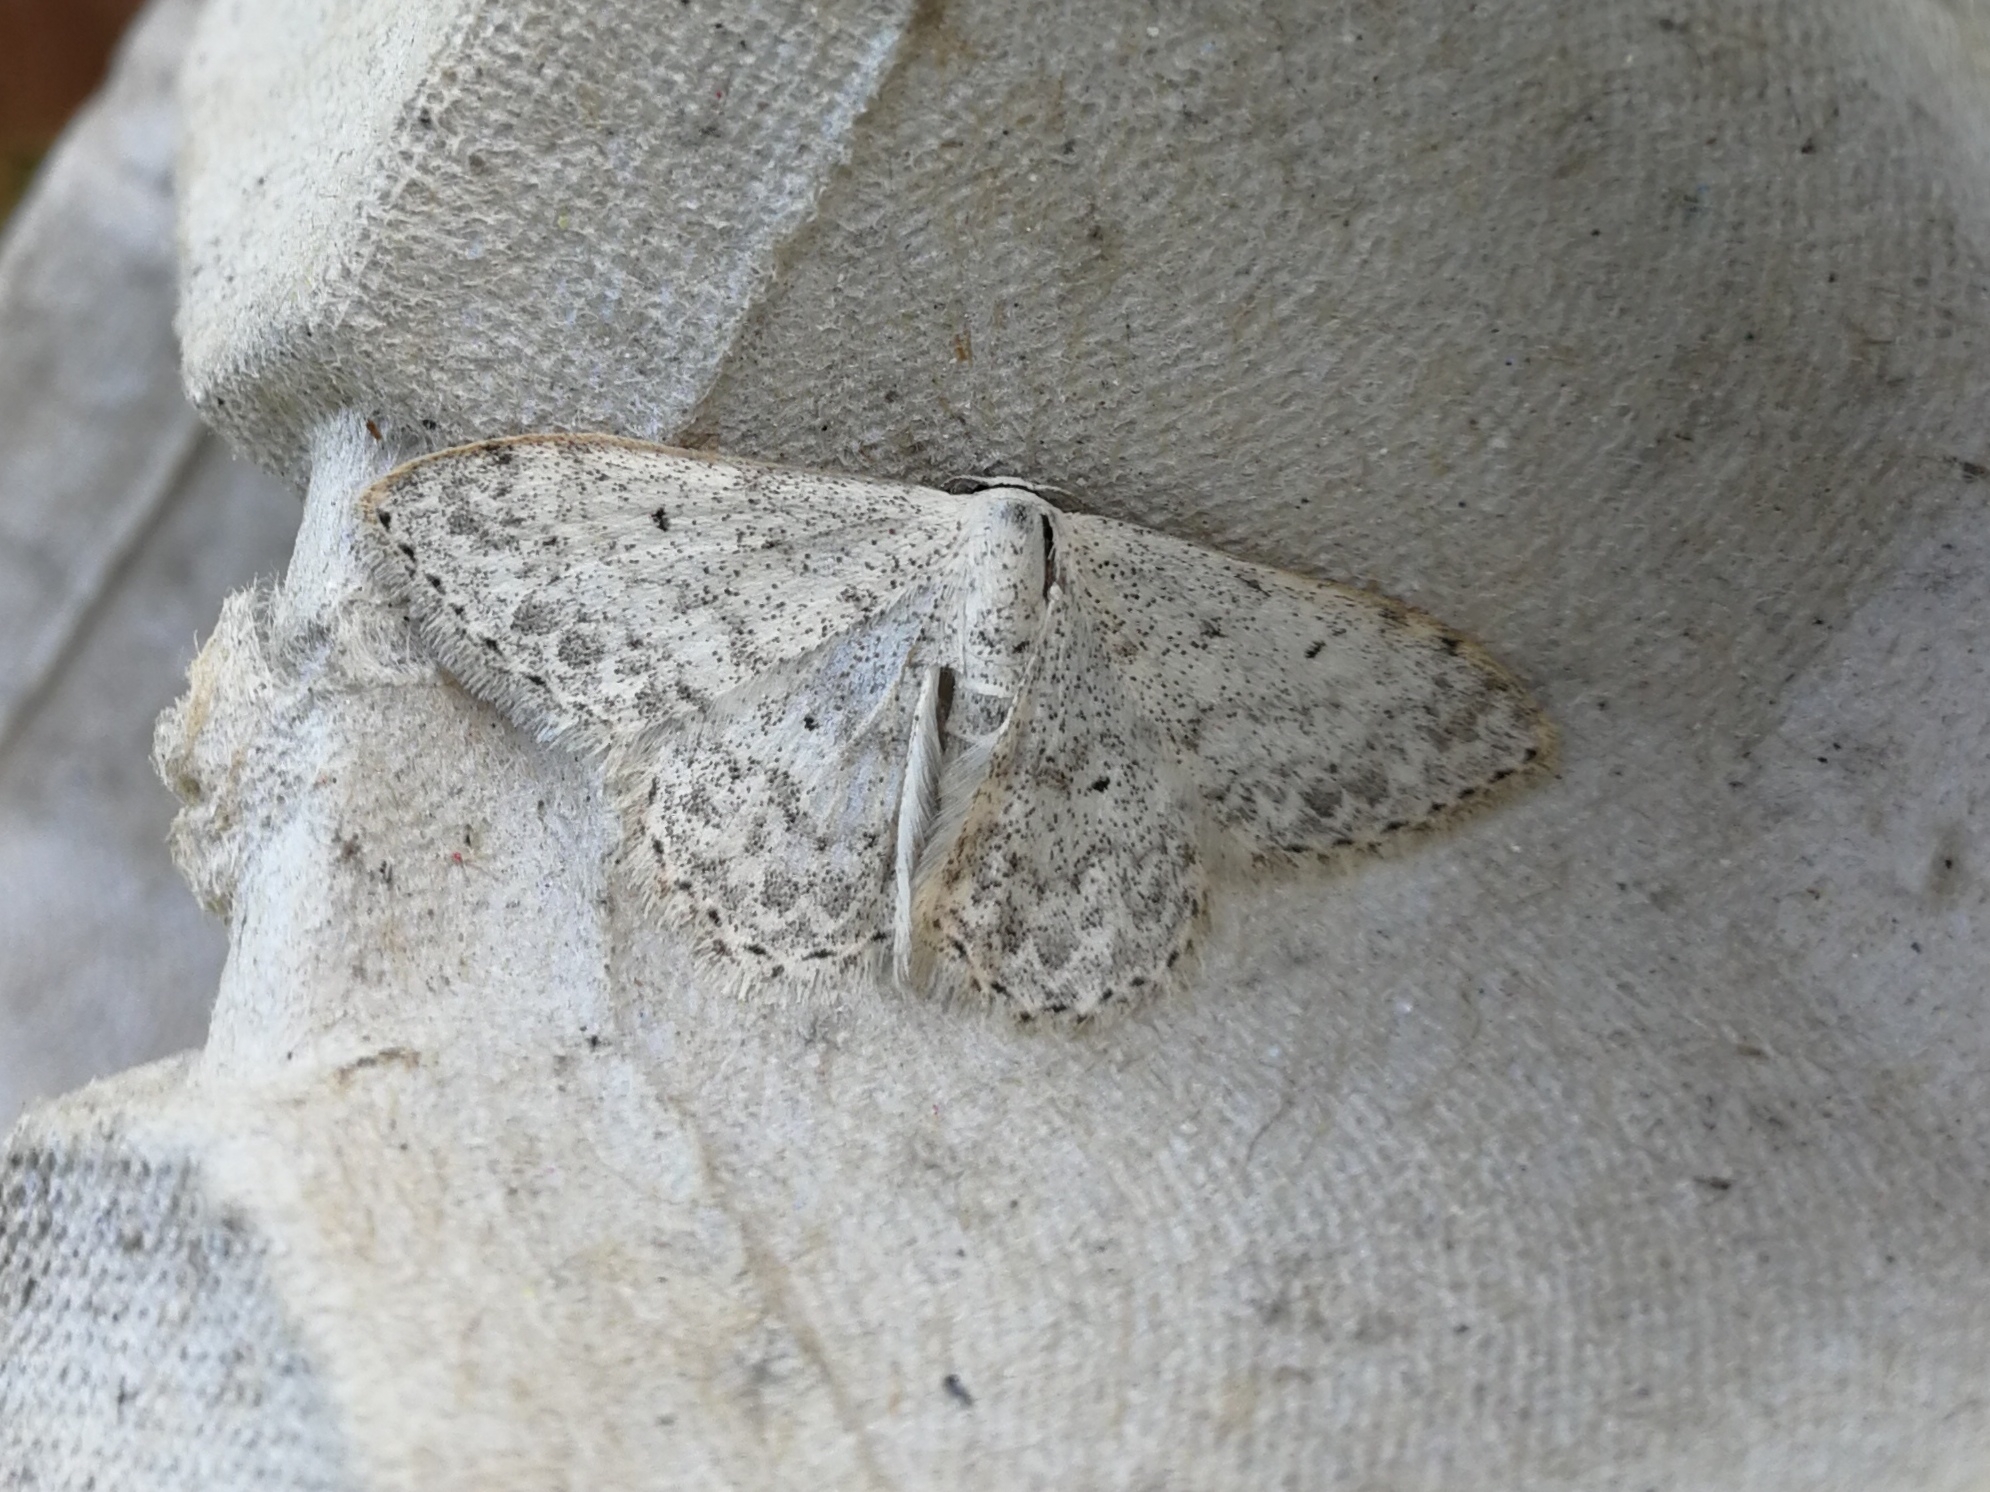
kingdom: Animalia
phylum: Arthropoda
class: Insecta
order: Lepidoptera
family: Geometridae
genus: Scopula
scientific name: Scopula marginepunctata
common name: Mullein wave
